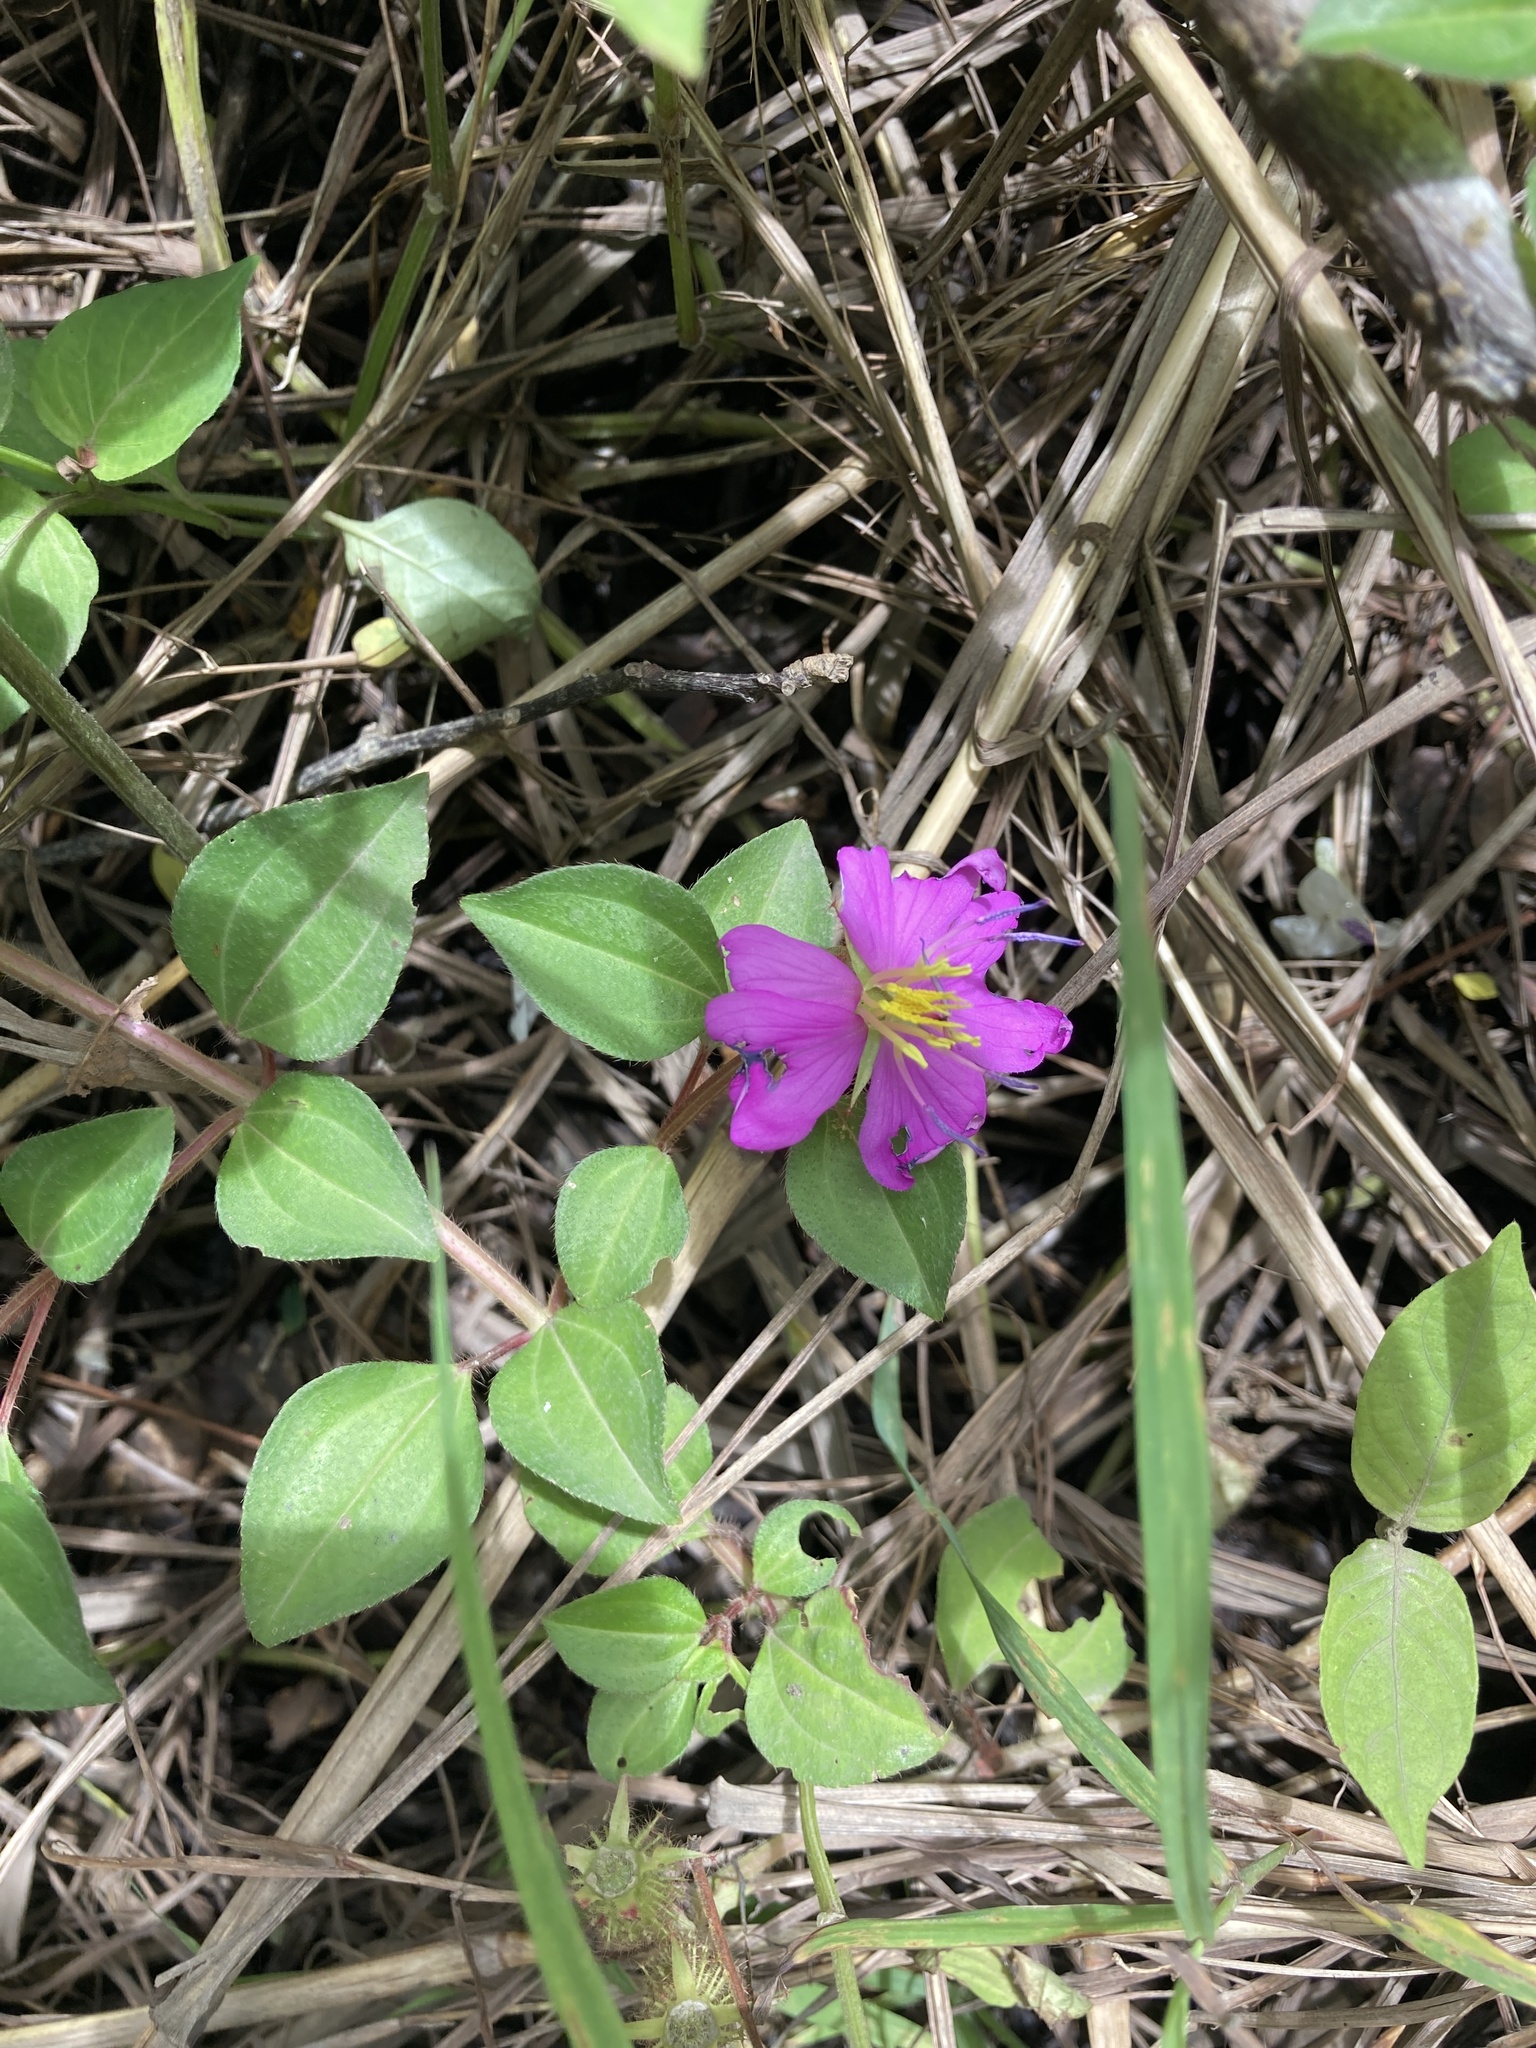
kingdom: Plantae
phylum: Tracheophyta
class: Magnoliopsida
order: Myrtales
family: Melastomataceae
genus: Heterotis
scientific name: Heterotis rotundifolia
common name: Pinklady
